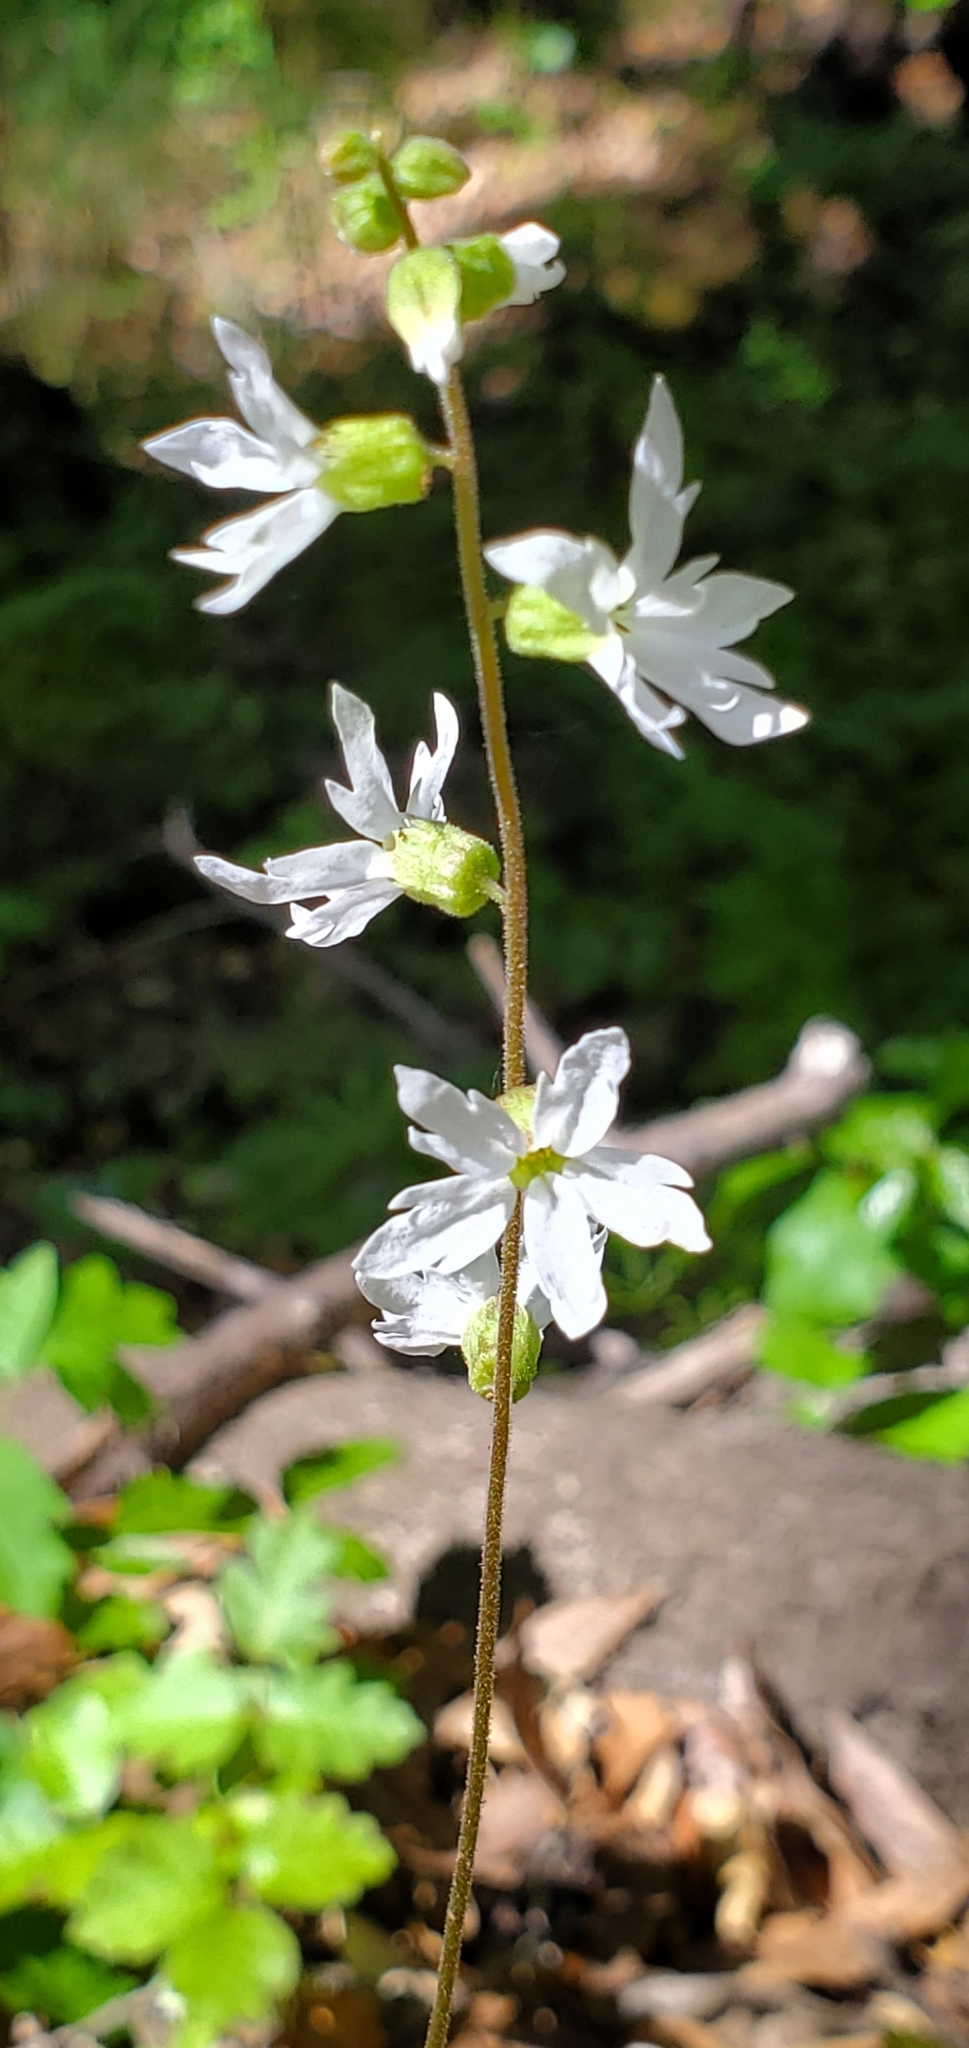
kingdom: Plantae
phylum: Tracheophyta
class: Magnoliopsida
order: Saxifragales
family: Saxifragaceae
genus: Lithophragma
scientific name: Lithophragma heterophyllum
